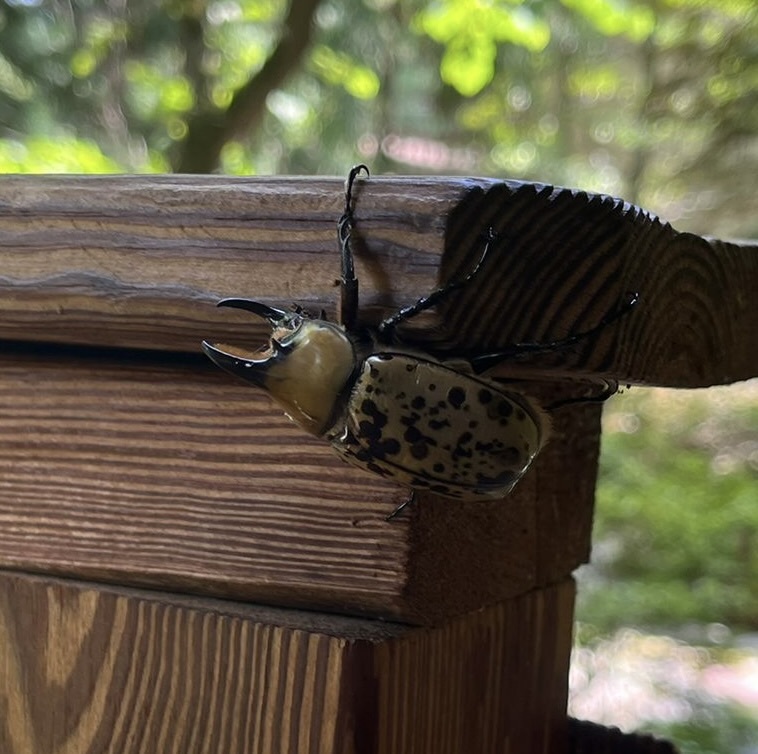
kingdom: Animalia
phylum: Arthropoda
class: Insecta
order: Coleoptera
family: Scarabaeidae
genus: Dynastes
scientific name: Dynastes tityus
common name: Eastern hercules beetle
